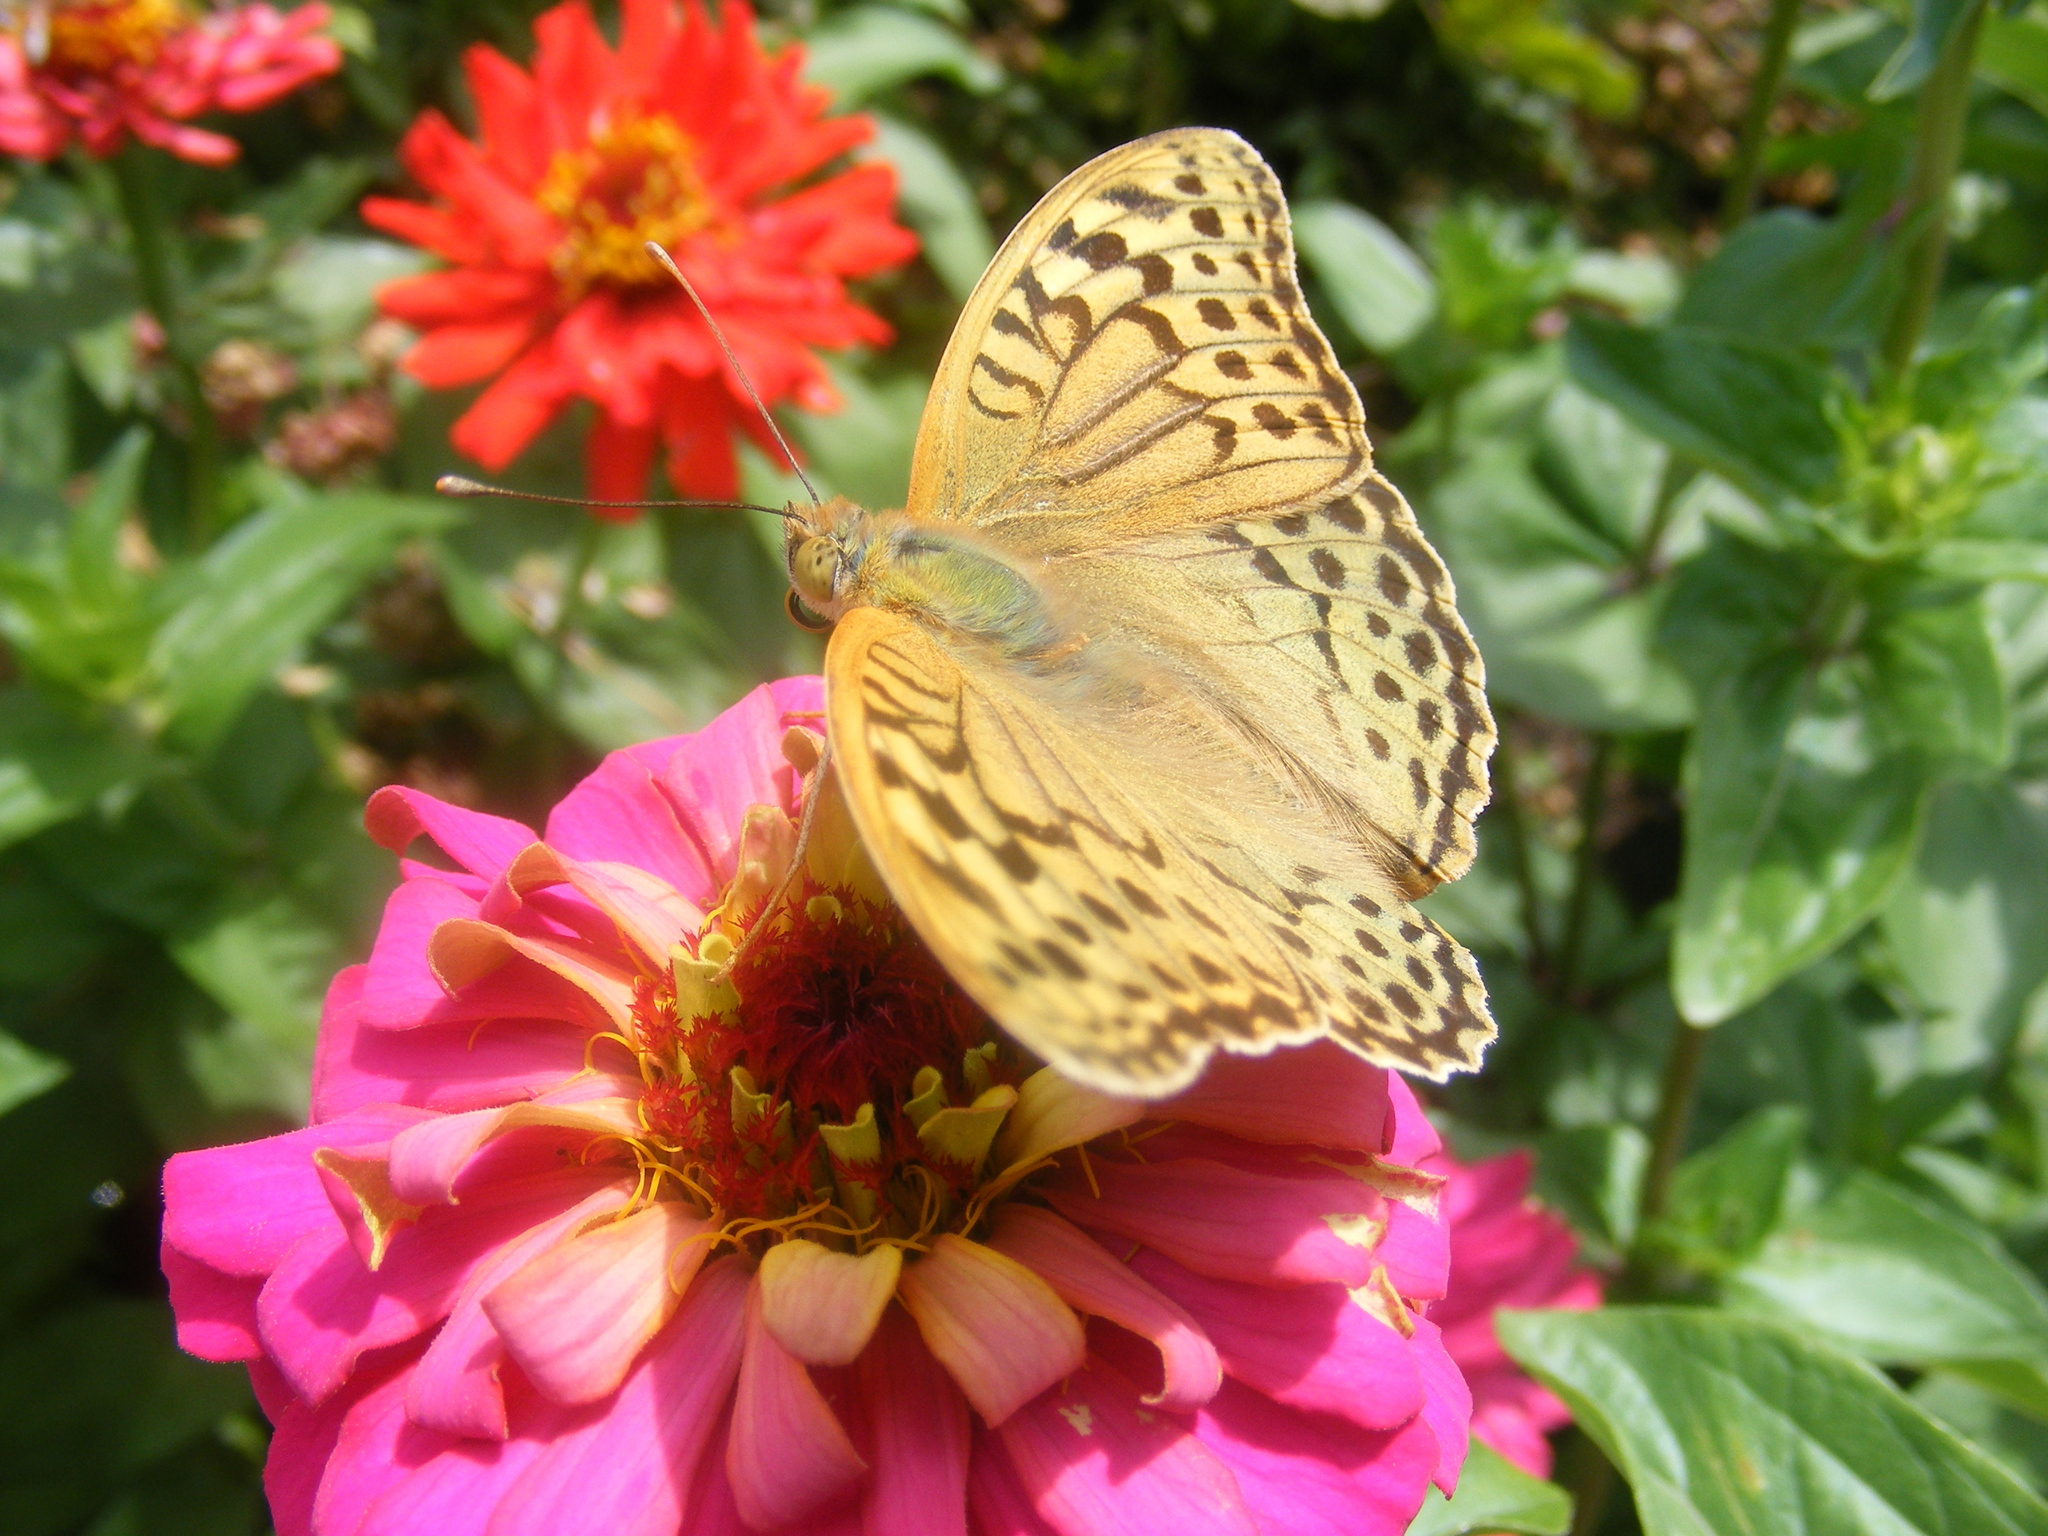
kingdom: Animalia
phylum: Arthropoda
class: Insecta
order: Lepidoptera
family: Nymphalidae
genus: Damora
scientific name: Damora pandora
